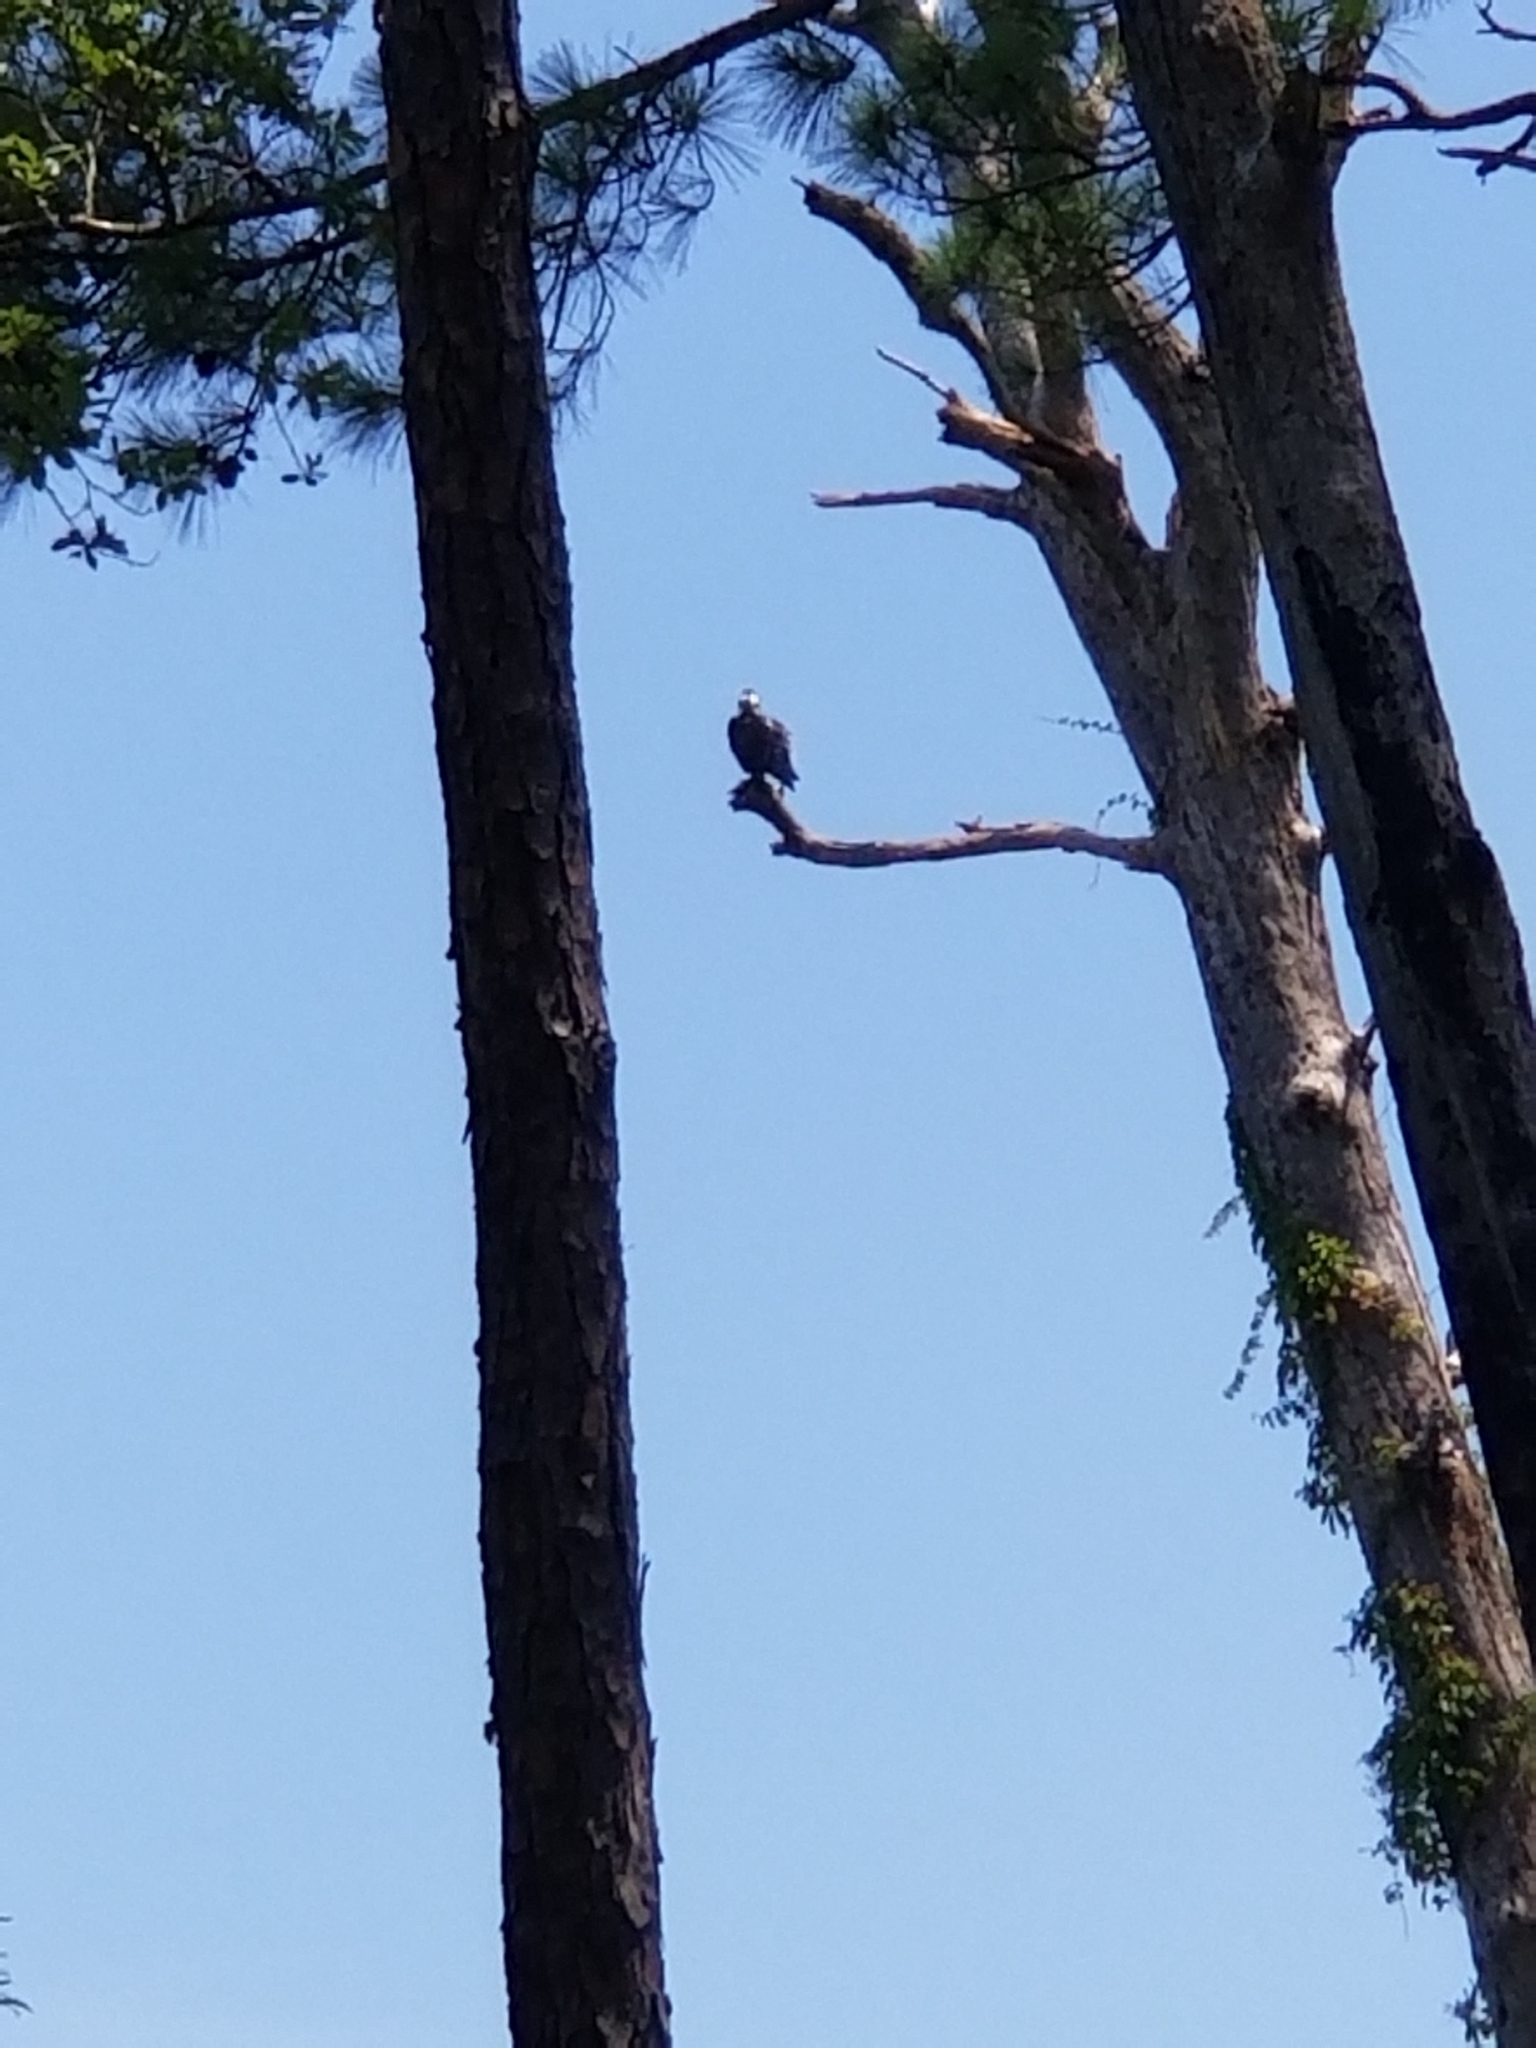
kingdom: Animalia
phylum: Chordata
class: Aves
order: Accipitriformes
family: Pandionidae
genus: Pandion
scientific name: Pandion haliaetus
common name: Osprey
